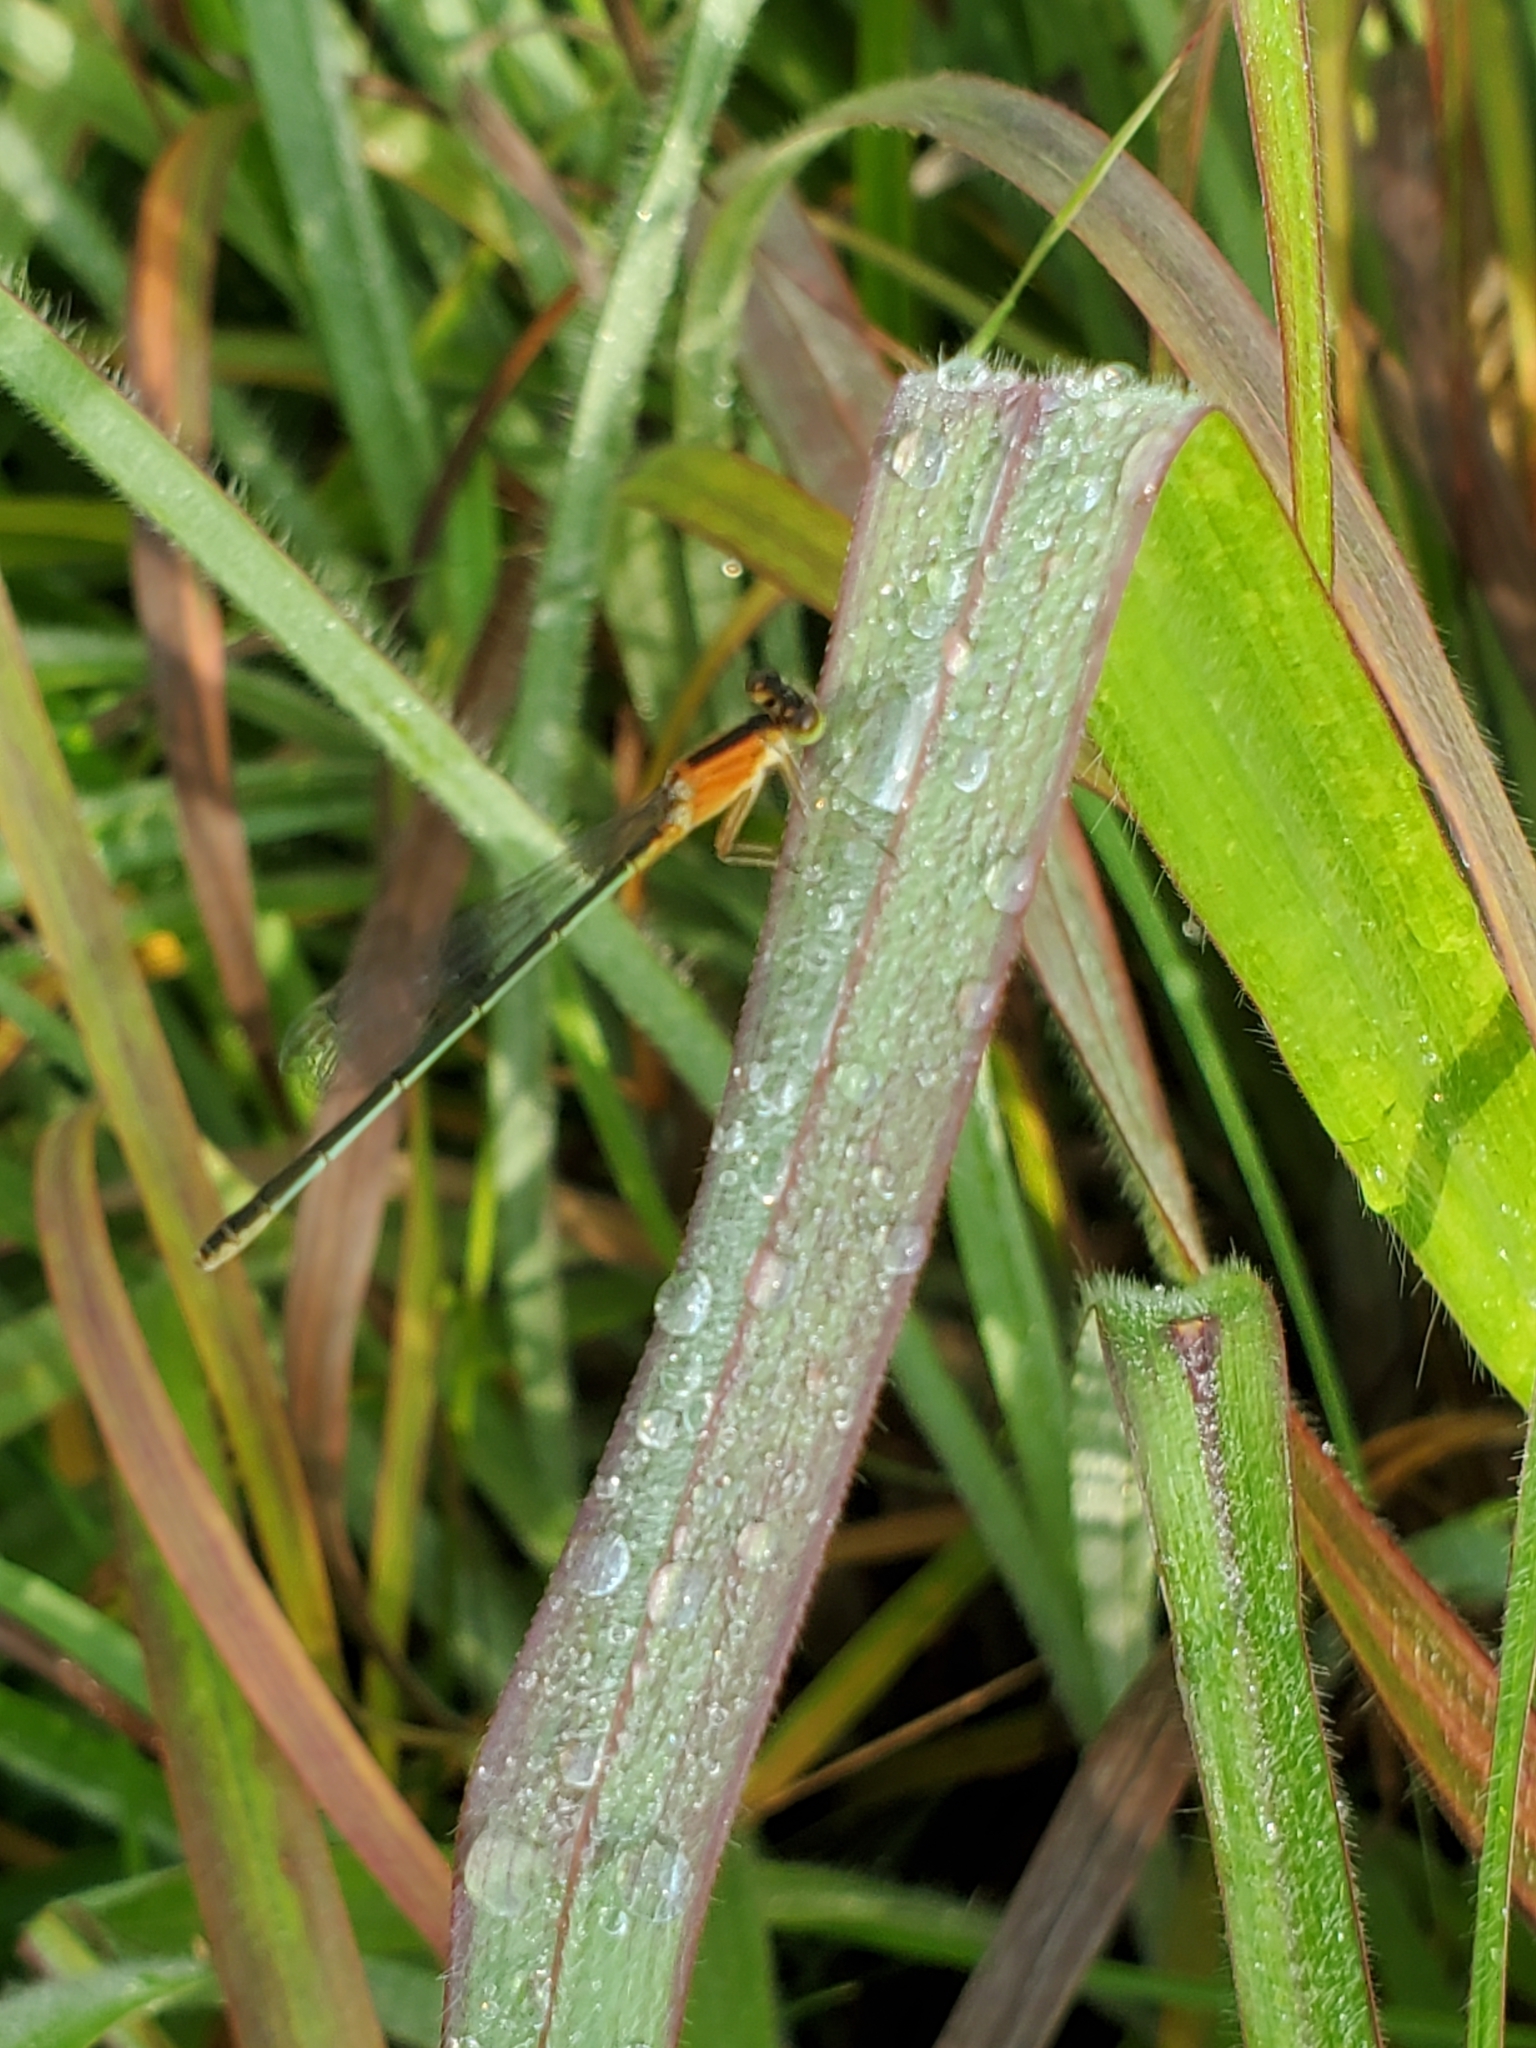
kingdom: Animalia
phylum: Arthropoda
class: Insecta
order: Odonata
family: Coenagrionidae
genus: Ischnura
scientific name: Ischnura ramburii
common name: Rambur's forktail
